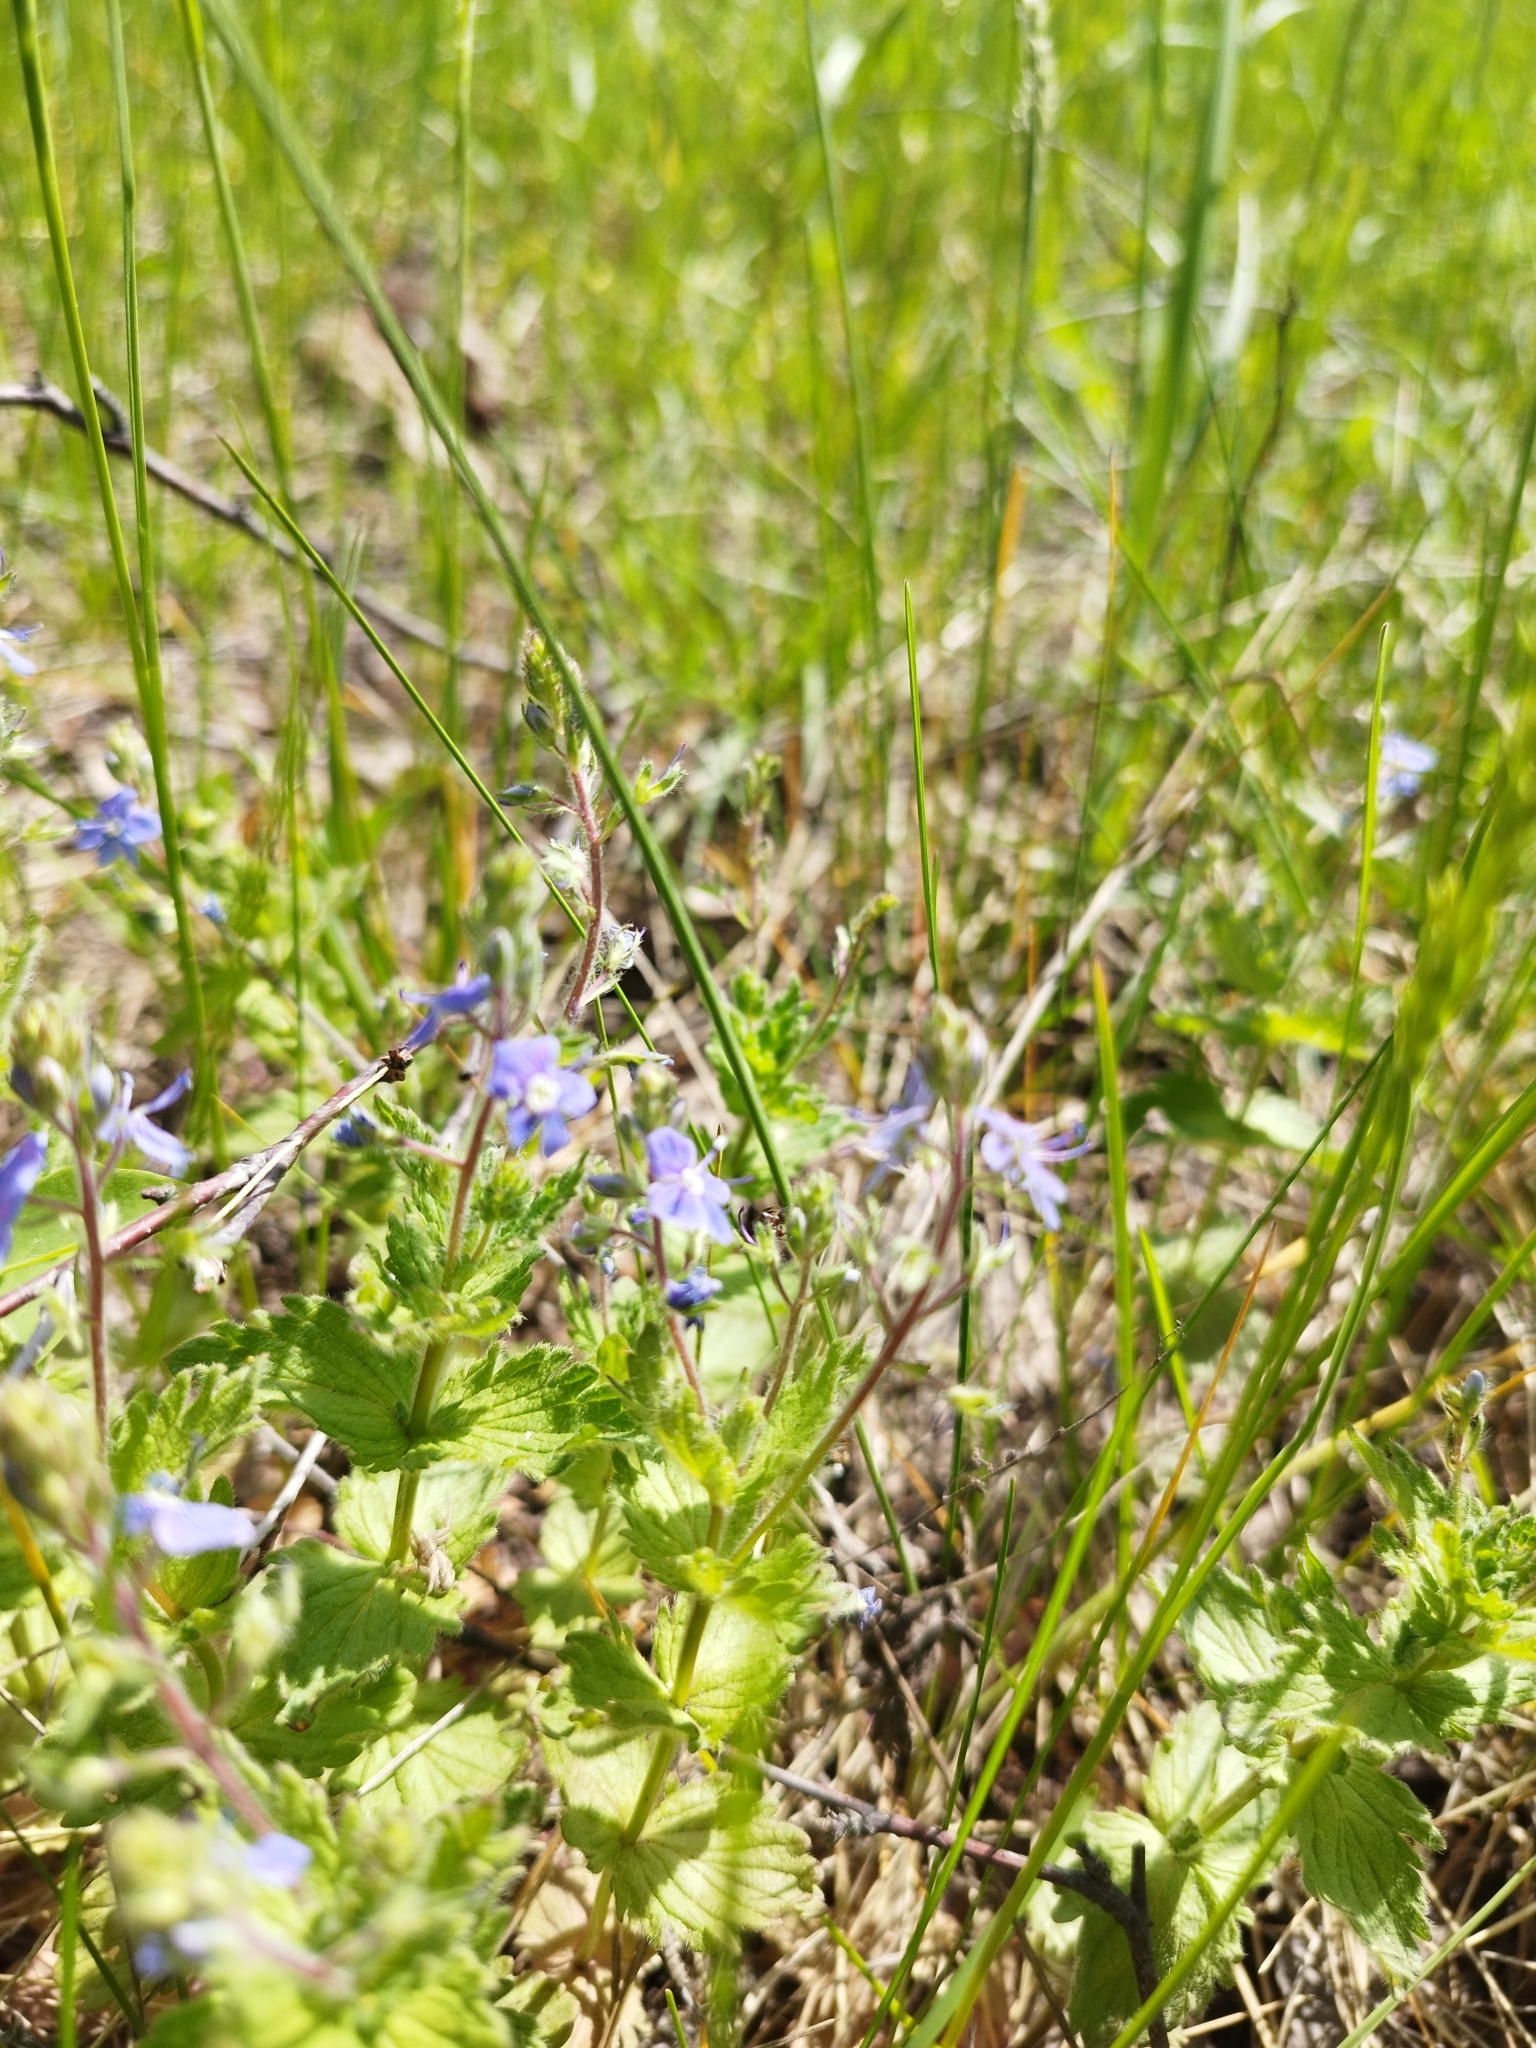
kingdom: Plantae
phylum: Tracheophyta
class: Magnoliopsida
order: Lamiales
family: Plantaginaceae
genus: Veronica
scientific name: Veronica chamaedrys
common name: Germander speedwell
